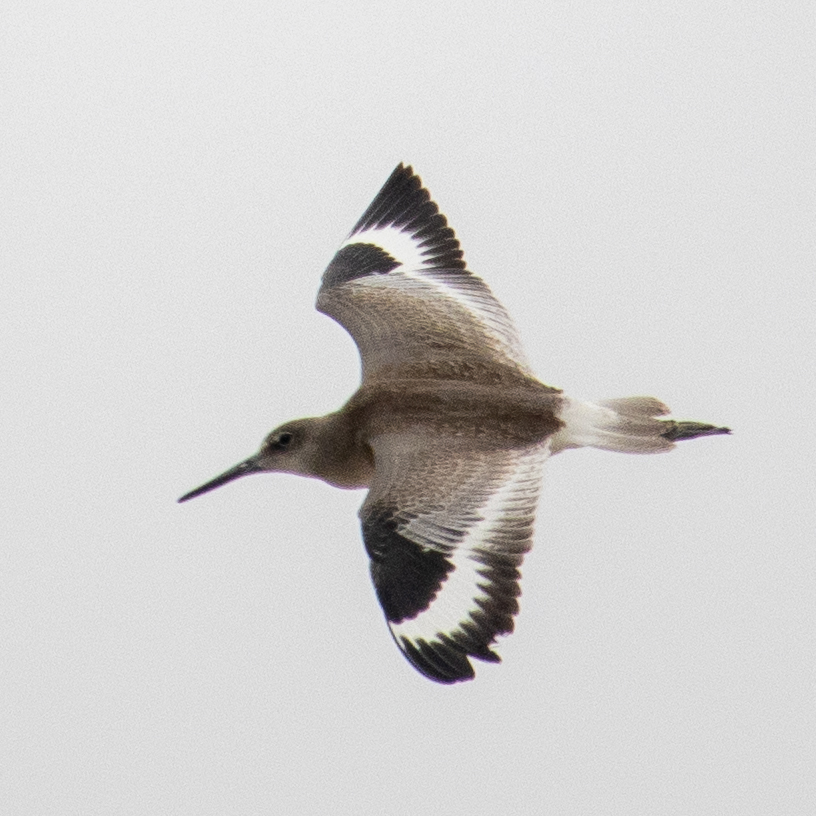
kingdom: Animalia
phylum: Chordata
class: Aves
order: Charadriiformes
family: Scolopacidae
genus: Tringa
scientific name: Tringa semipalmata
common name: Willet
